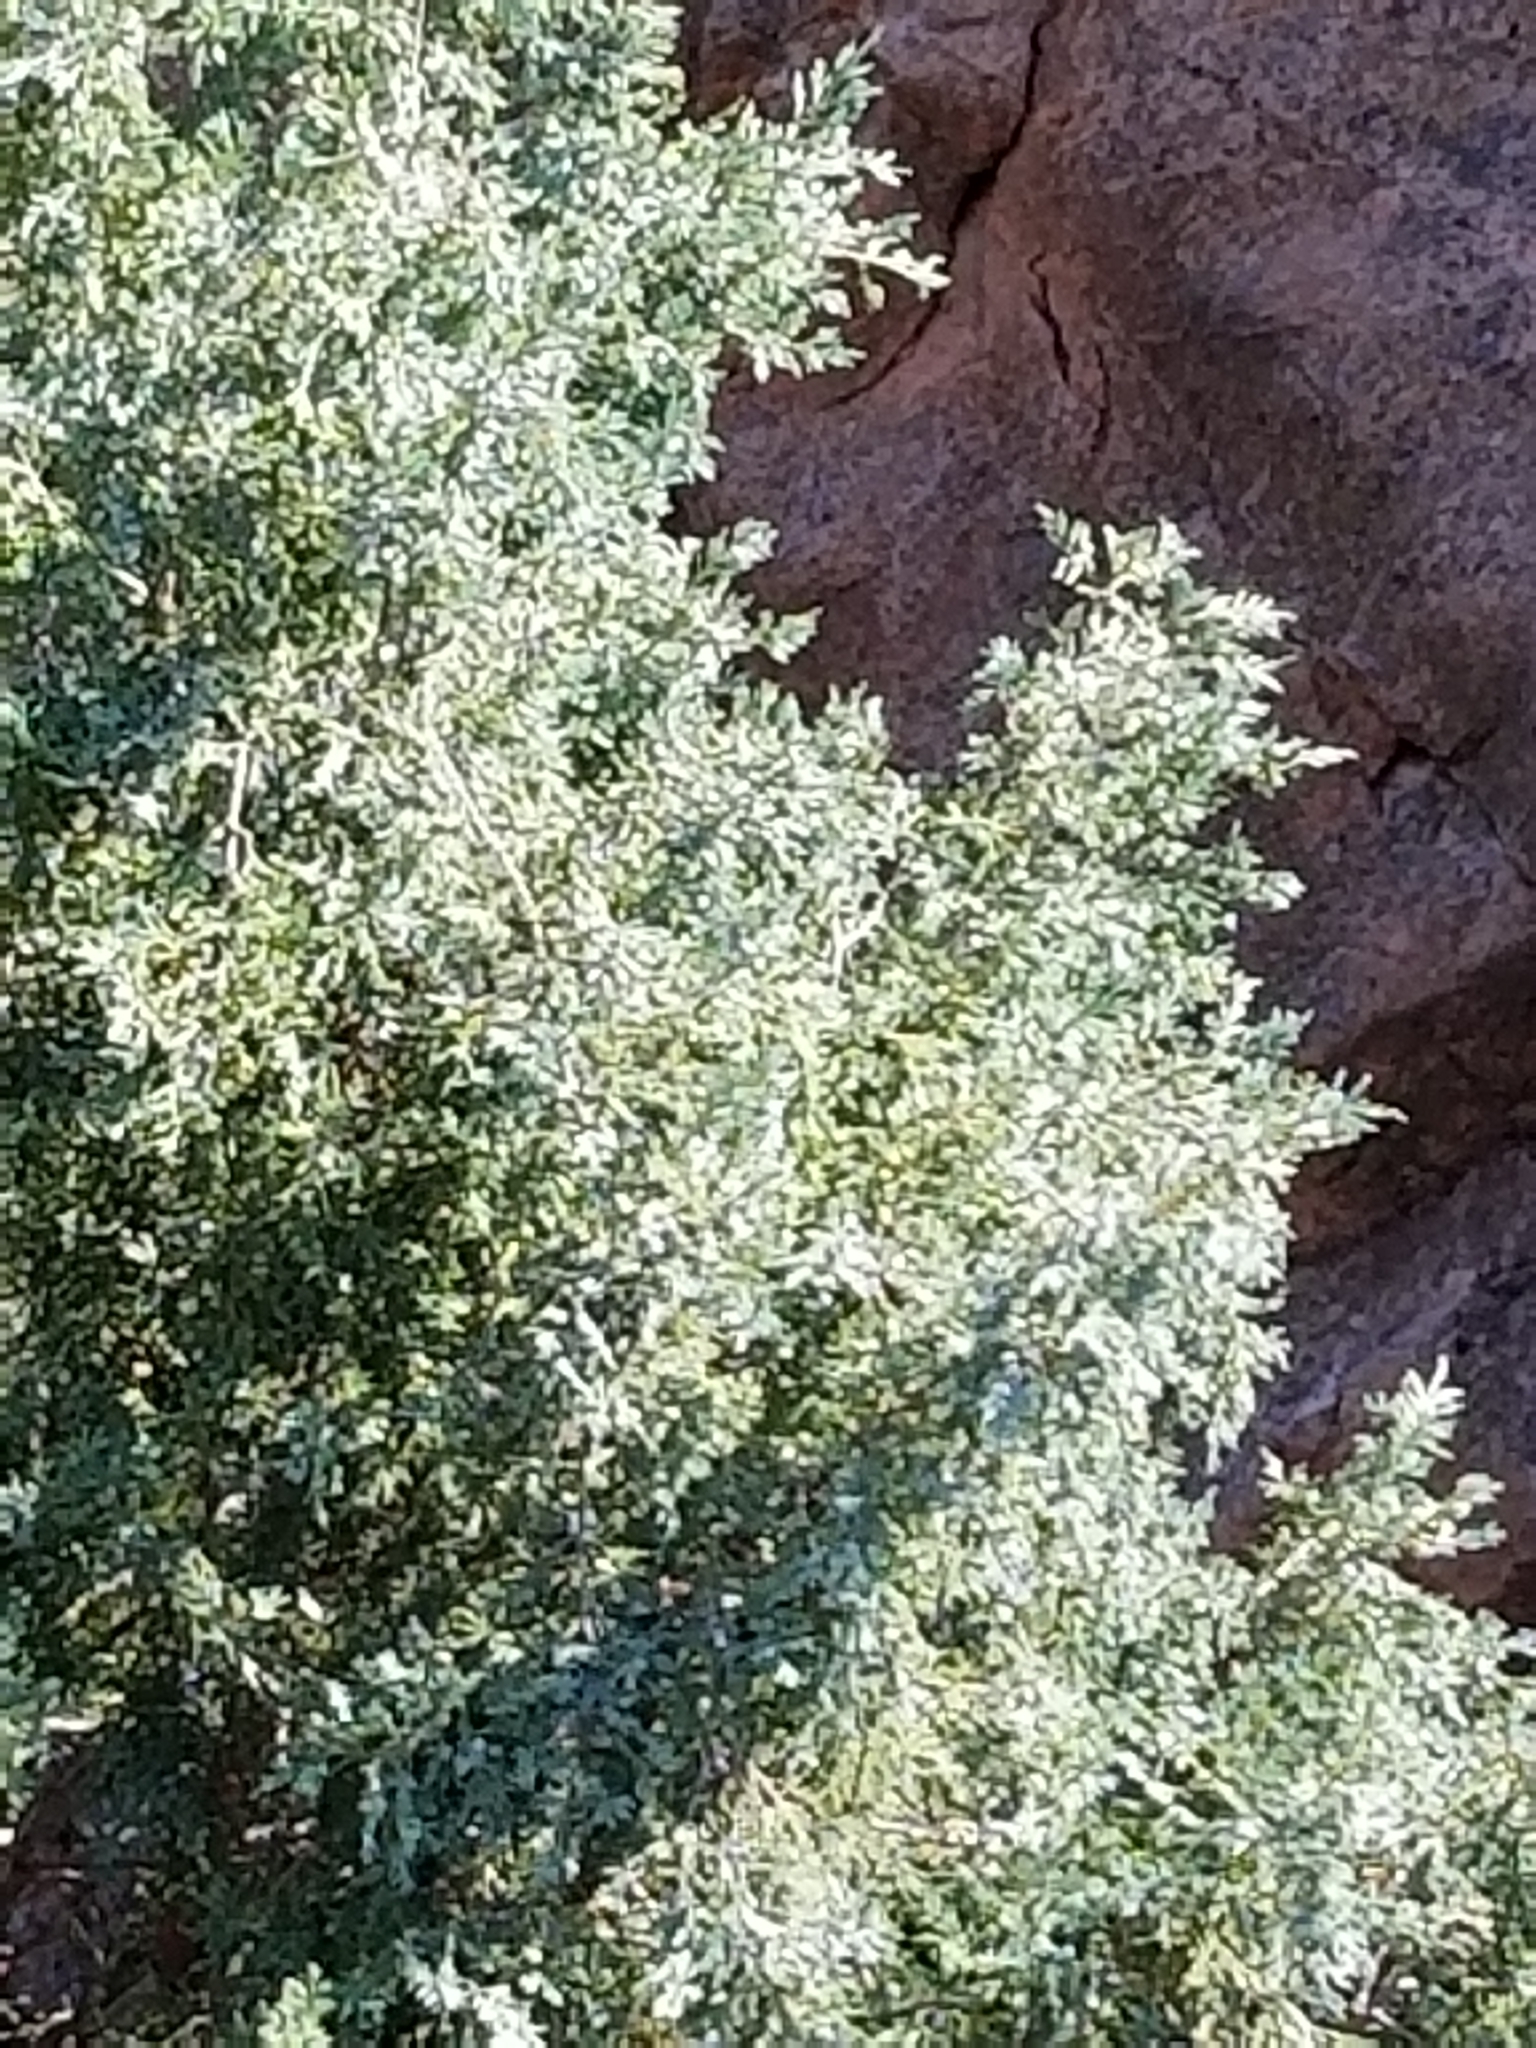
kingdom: Plantae
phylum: Tracheophyta
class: Pinopsida
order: Pinales
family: Cupressaceae
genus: Juniperus
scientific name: Juniperus scopulorum
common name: Rocky mountain juniper
